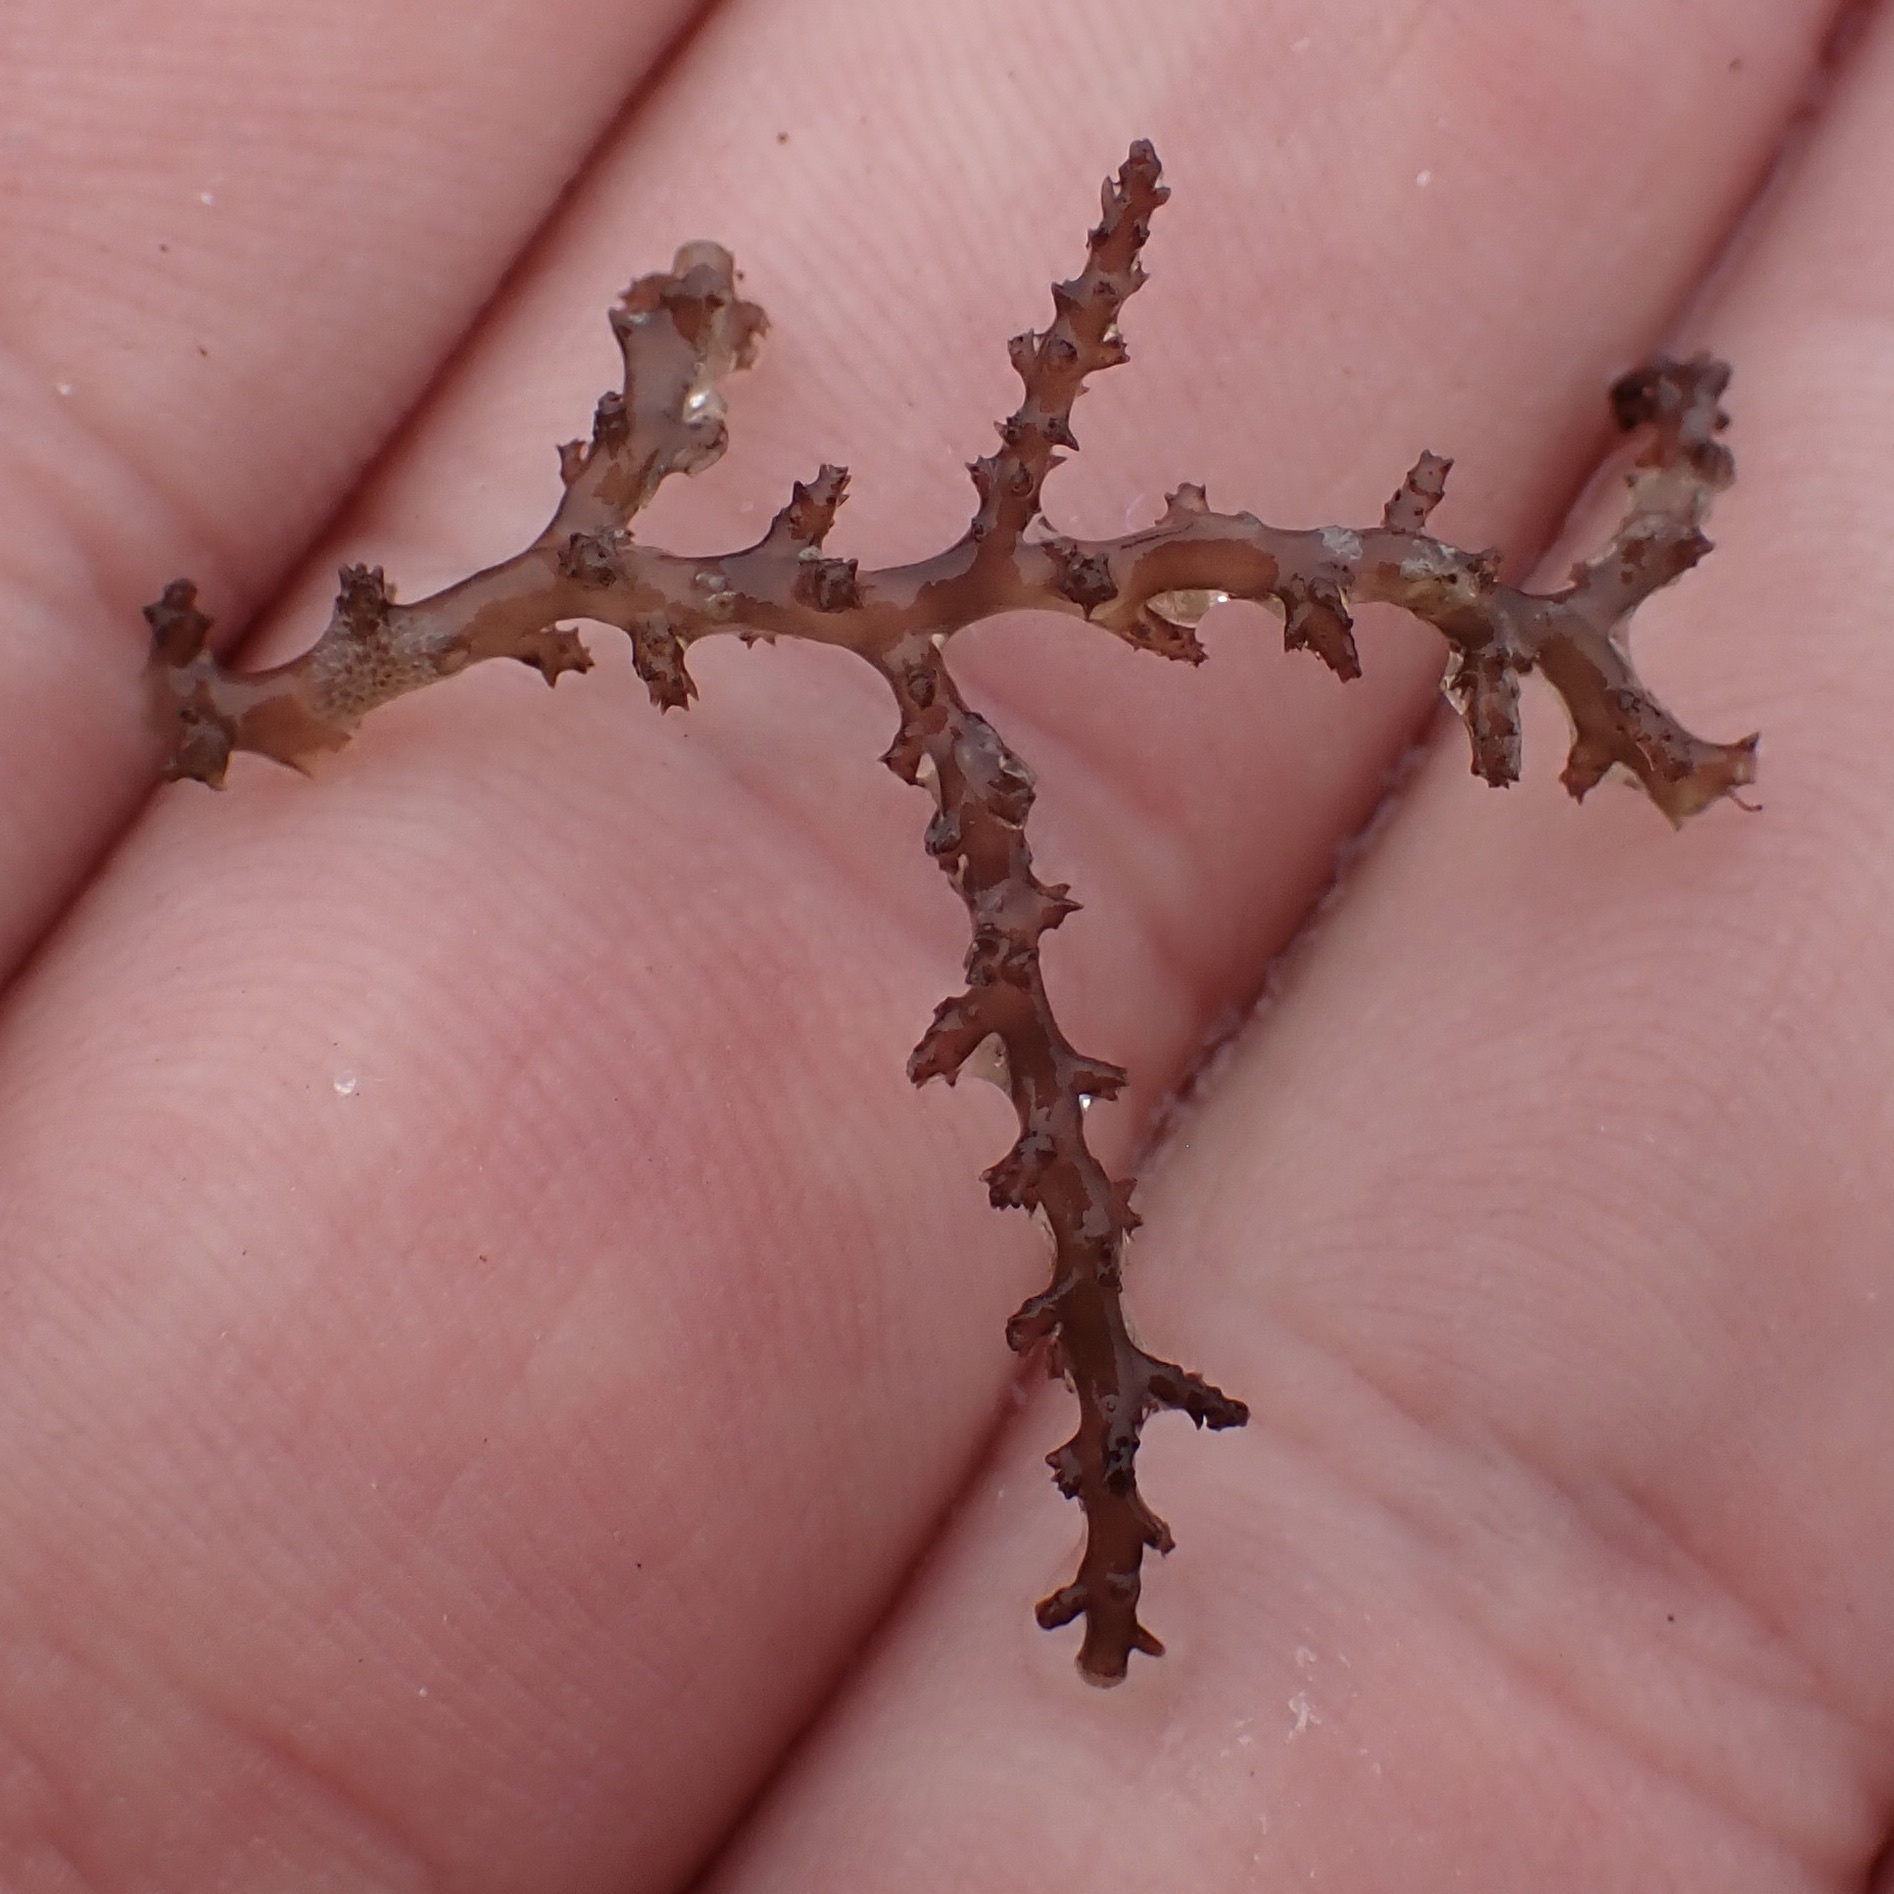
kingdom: Plantae
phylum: Rhodophyta
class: Florideophyceae
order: Ceramiales
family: Rhodomelaceae
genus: Acanthophora
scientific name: Acanthophora spicifera
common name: Red algae
